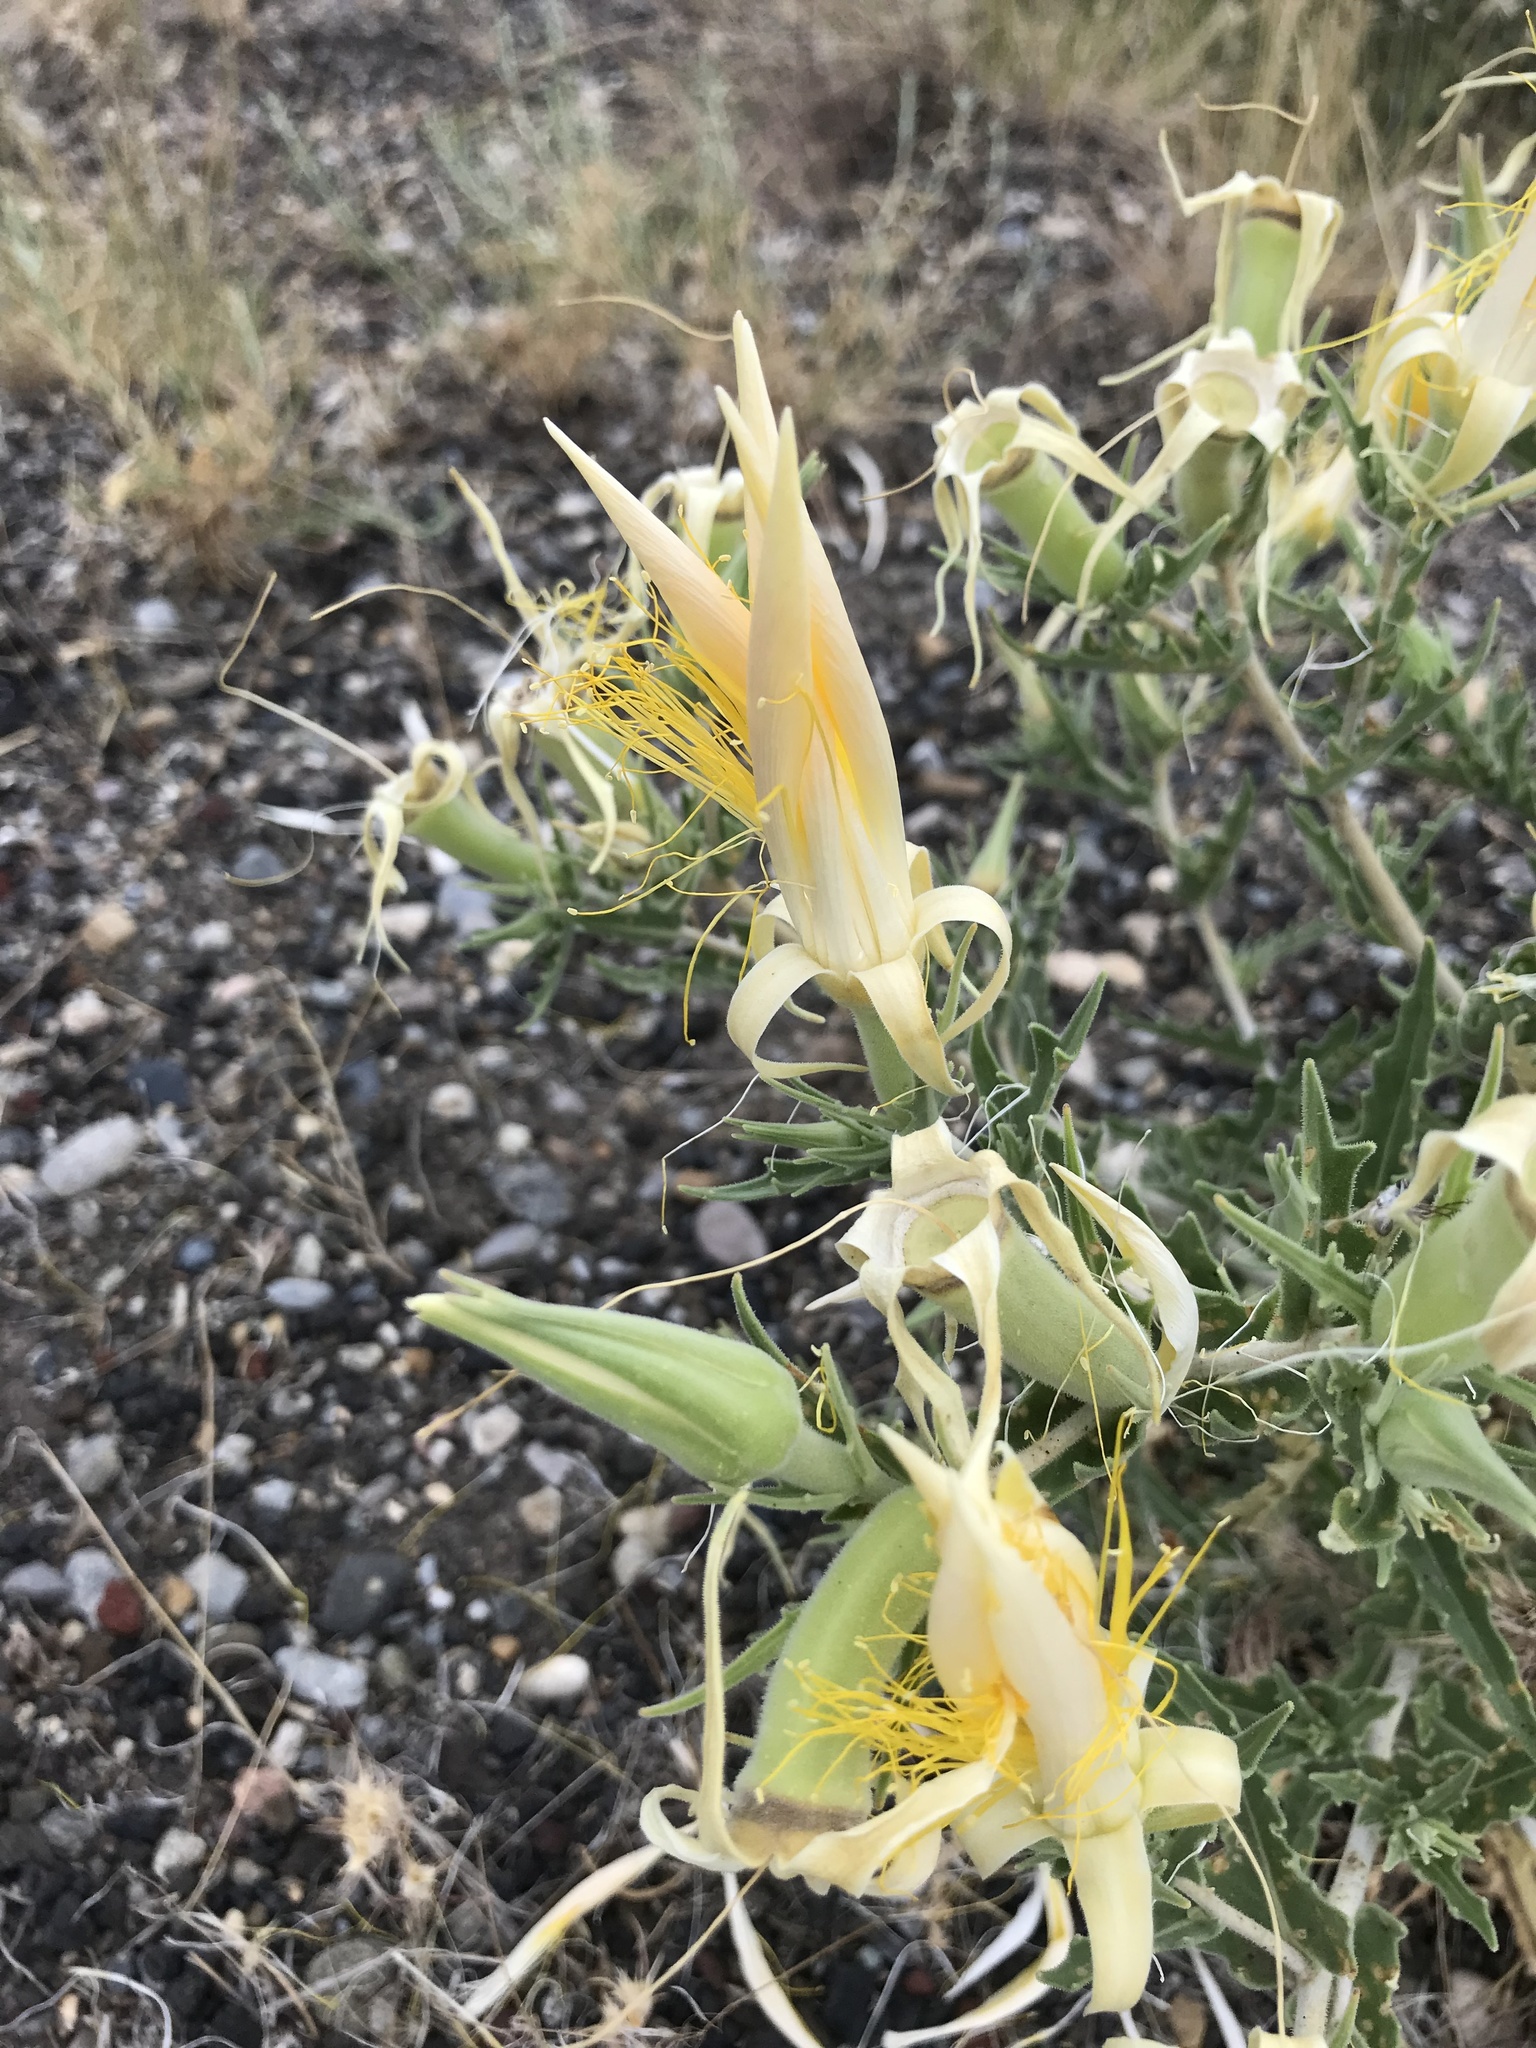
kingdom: Plantae
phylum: Tracheophyta
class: Magnoliopsida
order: Cornales
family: Loasaceae
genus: Mentzelia
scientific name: Mentzelia laevicaulis
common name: Smooth-stem blazingstar
